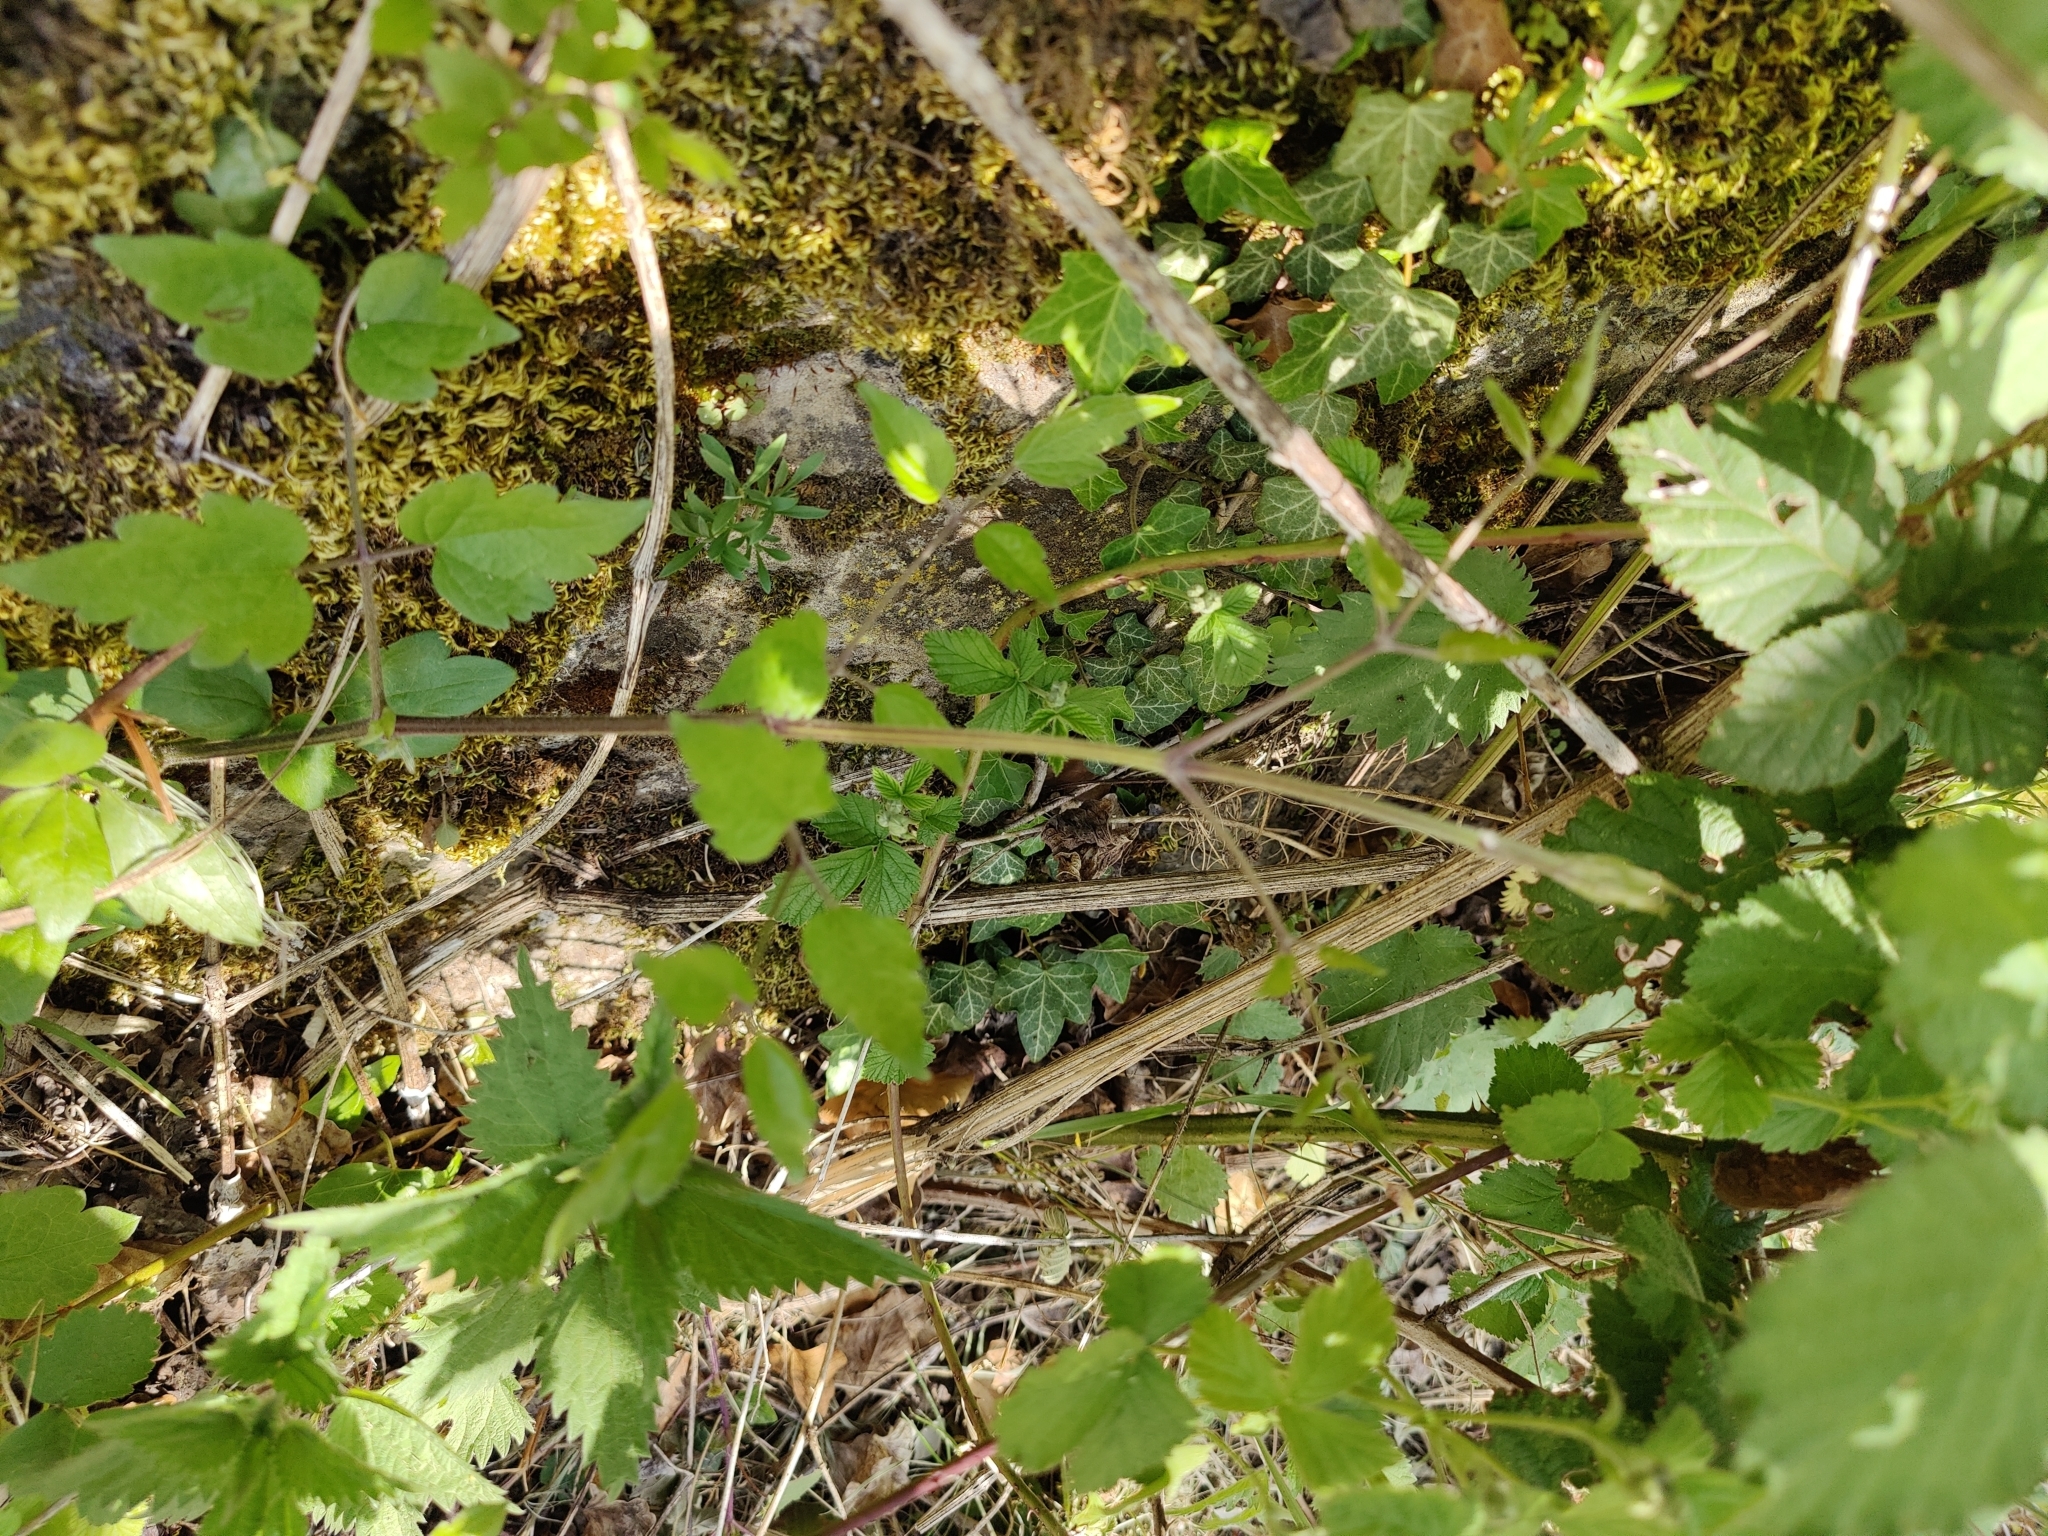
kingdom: Plantae
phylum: Tracheophyta
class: Magnoliopsida
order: Ranunculales
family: Ranunculaceae
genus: Clematis
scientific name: Clematis vitalba
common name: Evergreen clematis
